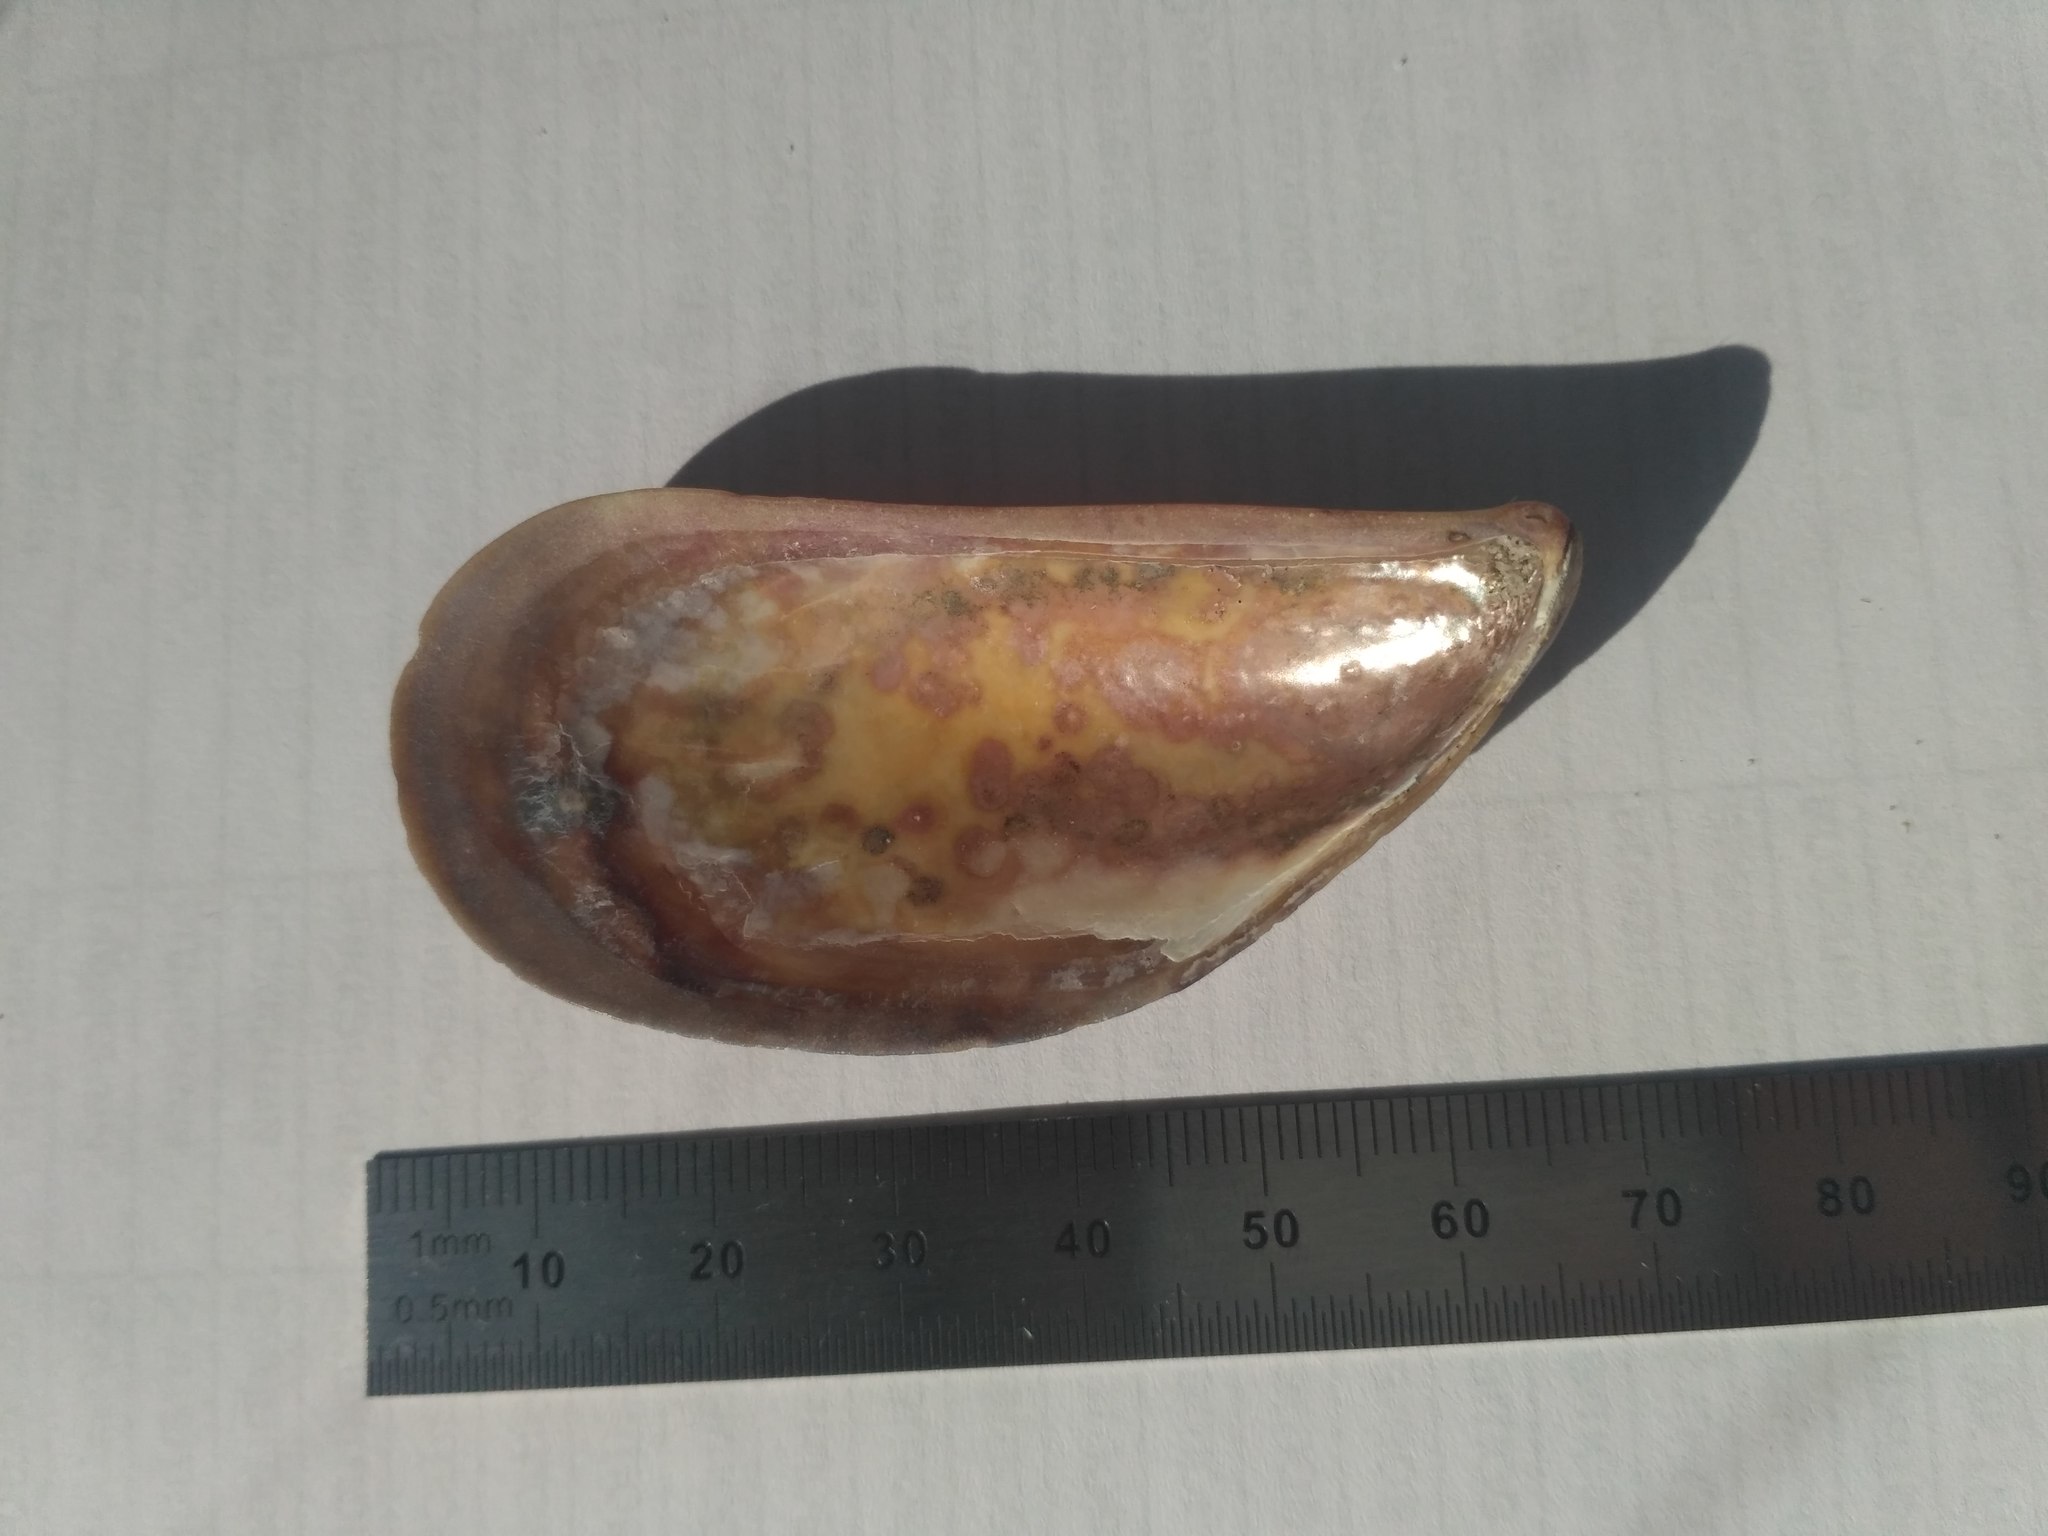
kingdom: Animalia
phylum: Mollusca
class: Bivalvia
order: Mytilida
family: Mytilidae
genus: Mytilus
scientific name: Mytilus galloprovincialis
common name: Mediterranean mussel
